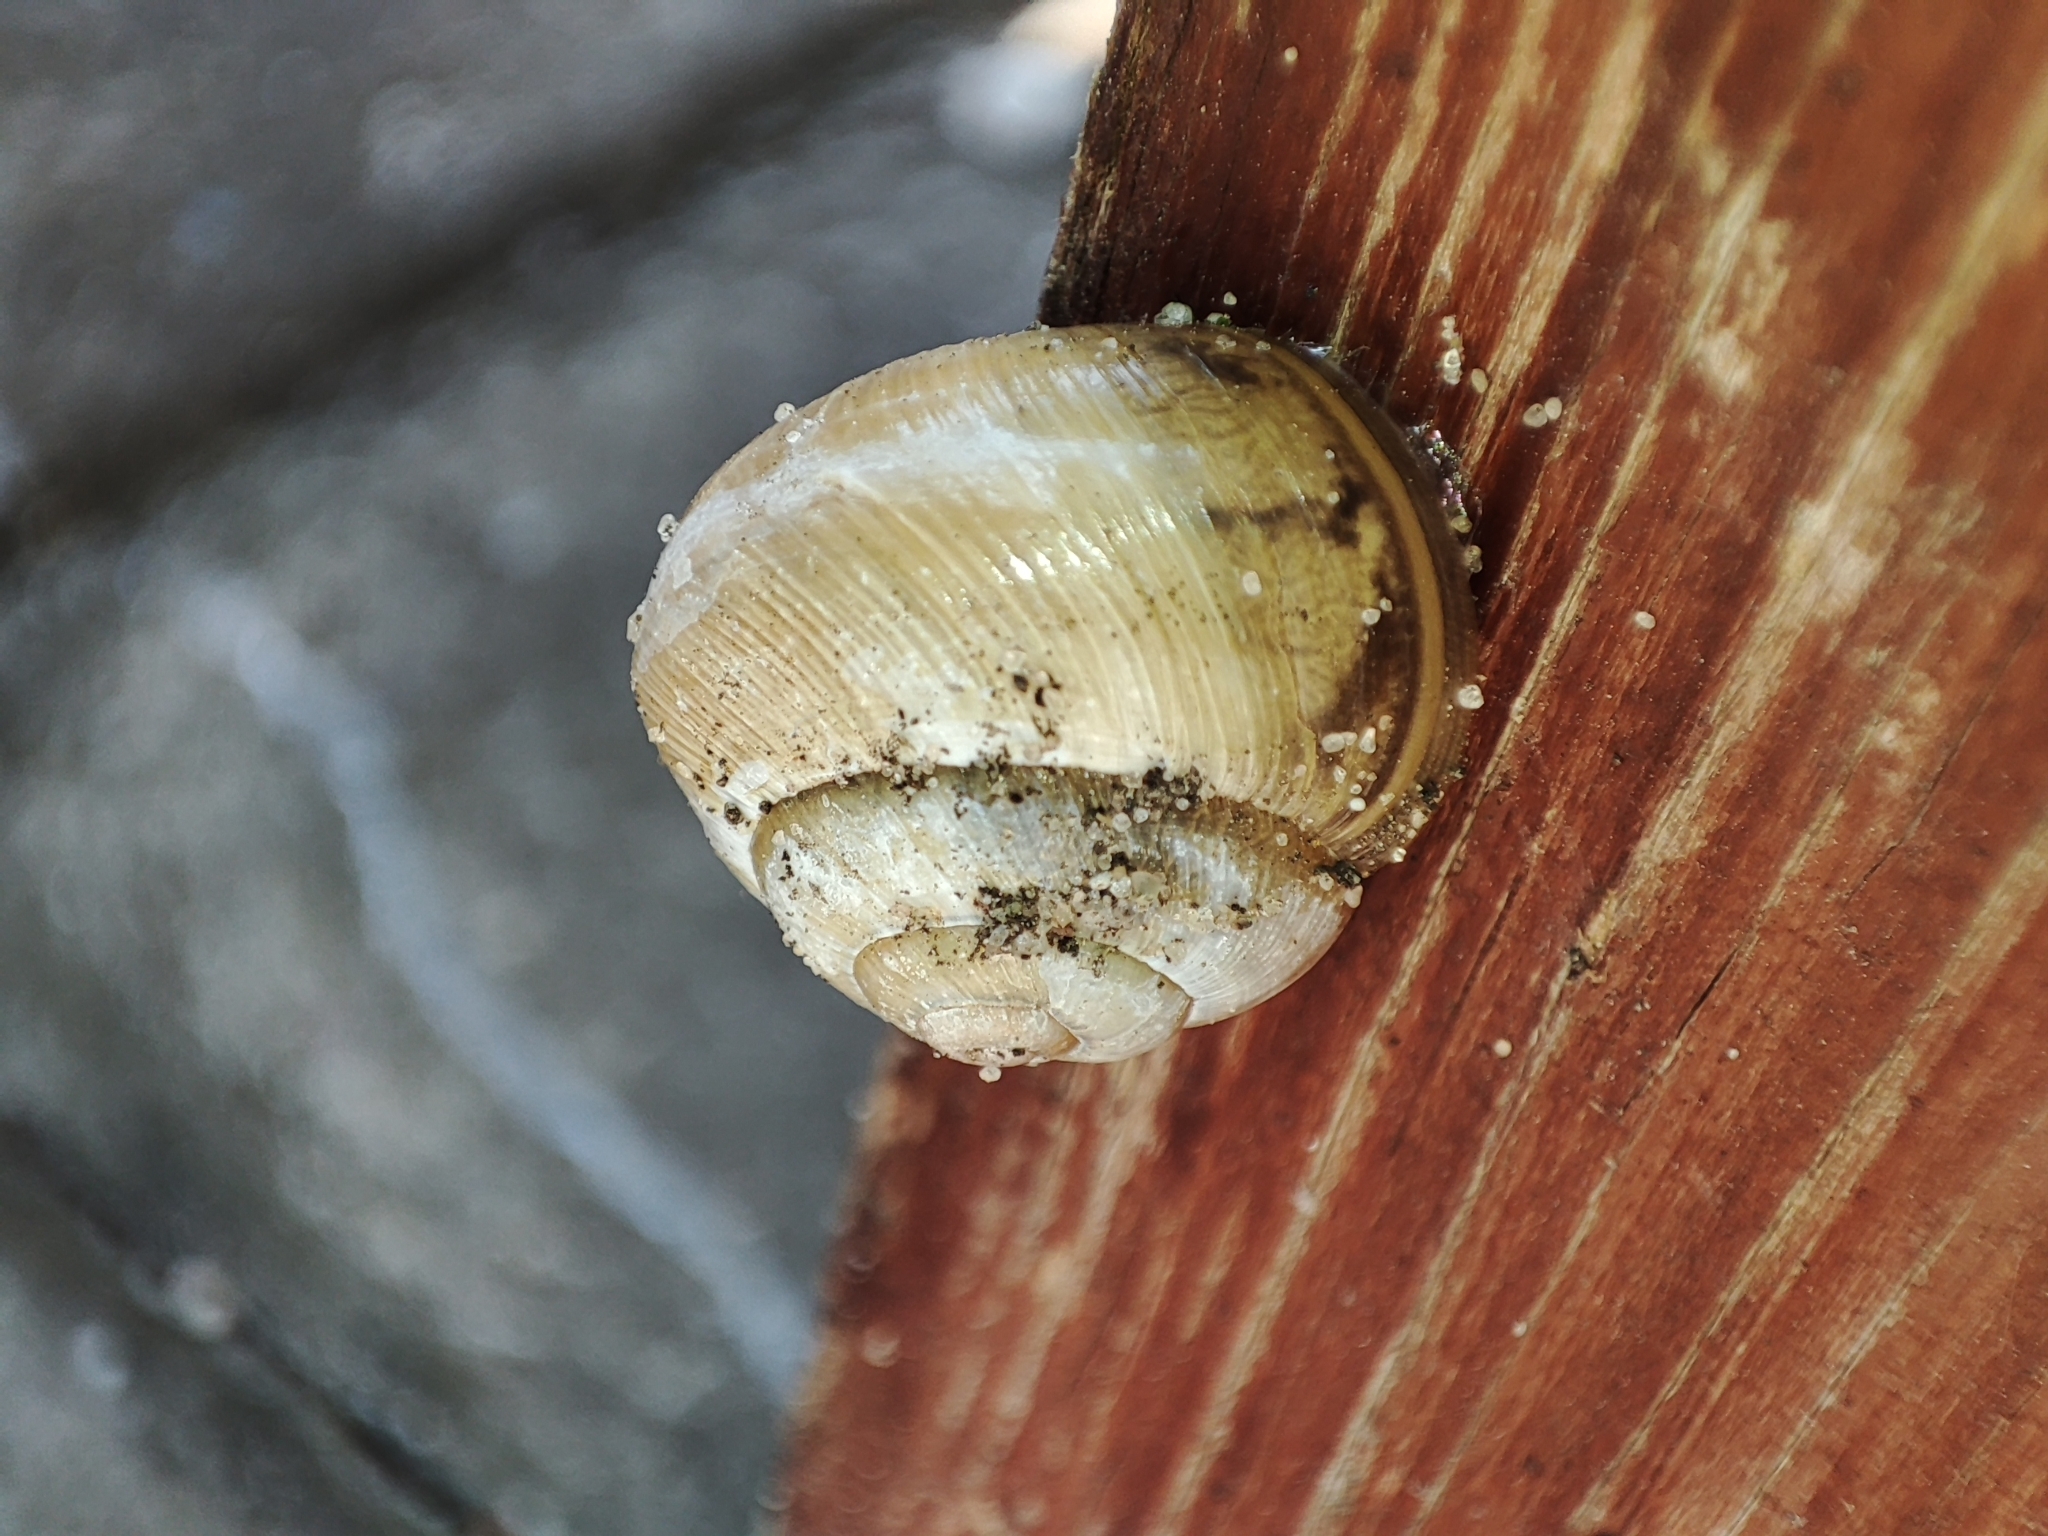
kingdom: Animalia
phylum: Mollusca
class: Gastropoda
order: Stylommatophora
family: Helicidae
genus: Caucasotachea
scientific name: Caucasotachea vindobonensis
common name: European helicid land snail
